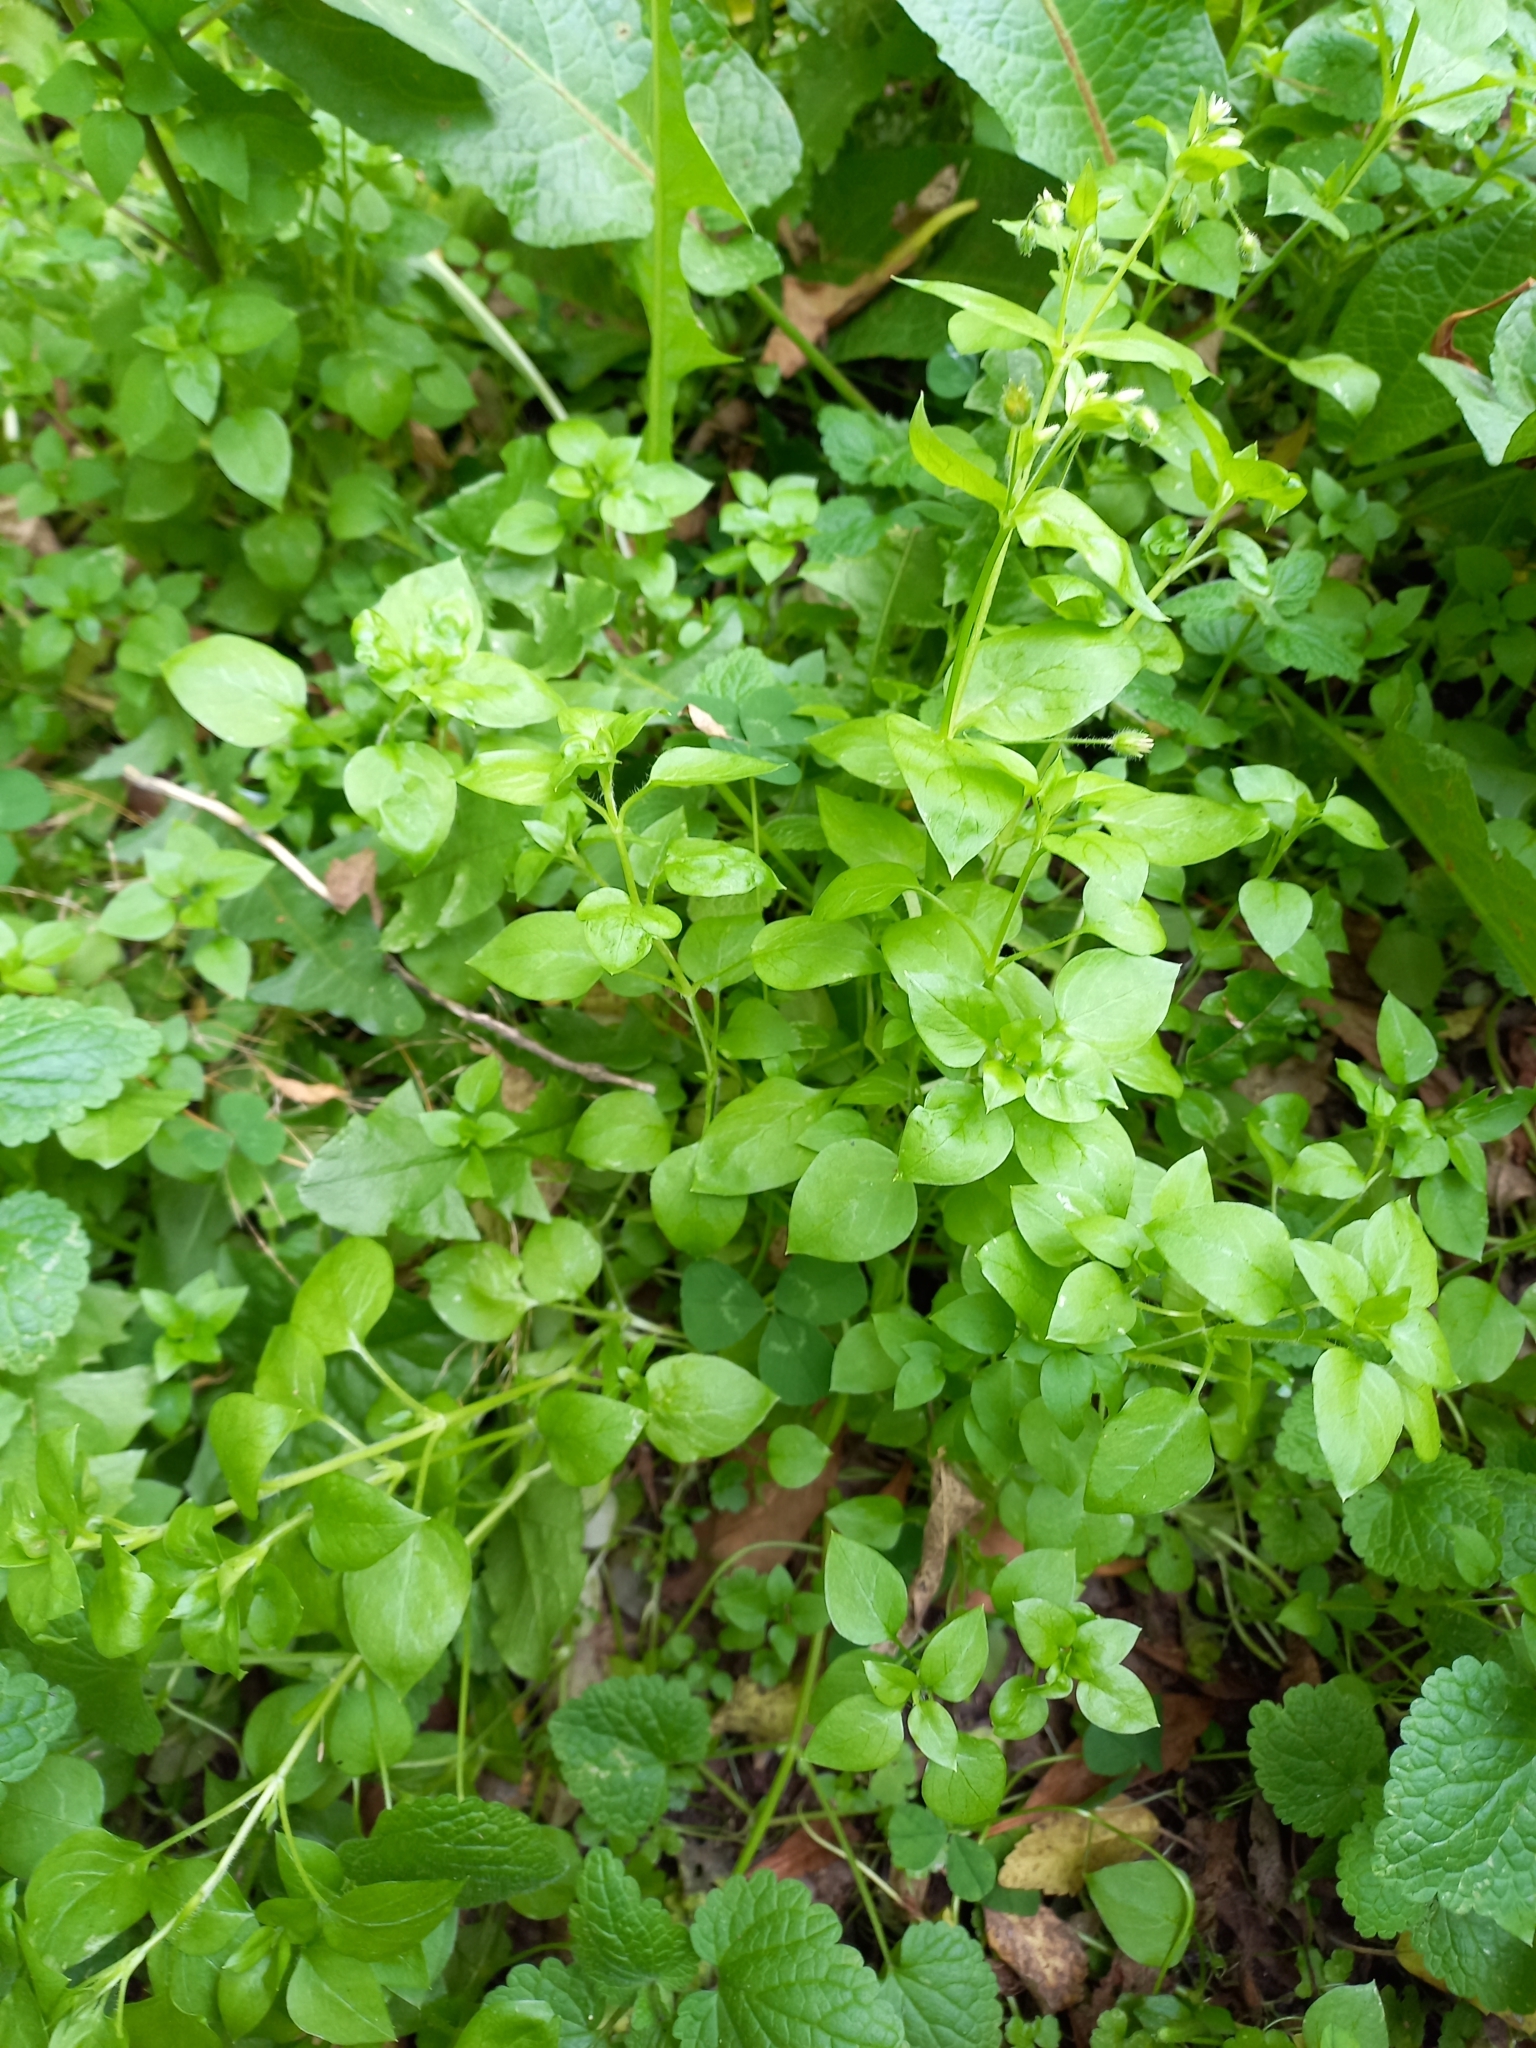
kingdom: Plantae
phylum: Tracheophyta
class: Magnoliopsida
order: Caryophyllales
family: Caryophyllaceae
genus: Stellaria
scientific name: Stellaria media
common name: Common chickweed
